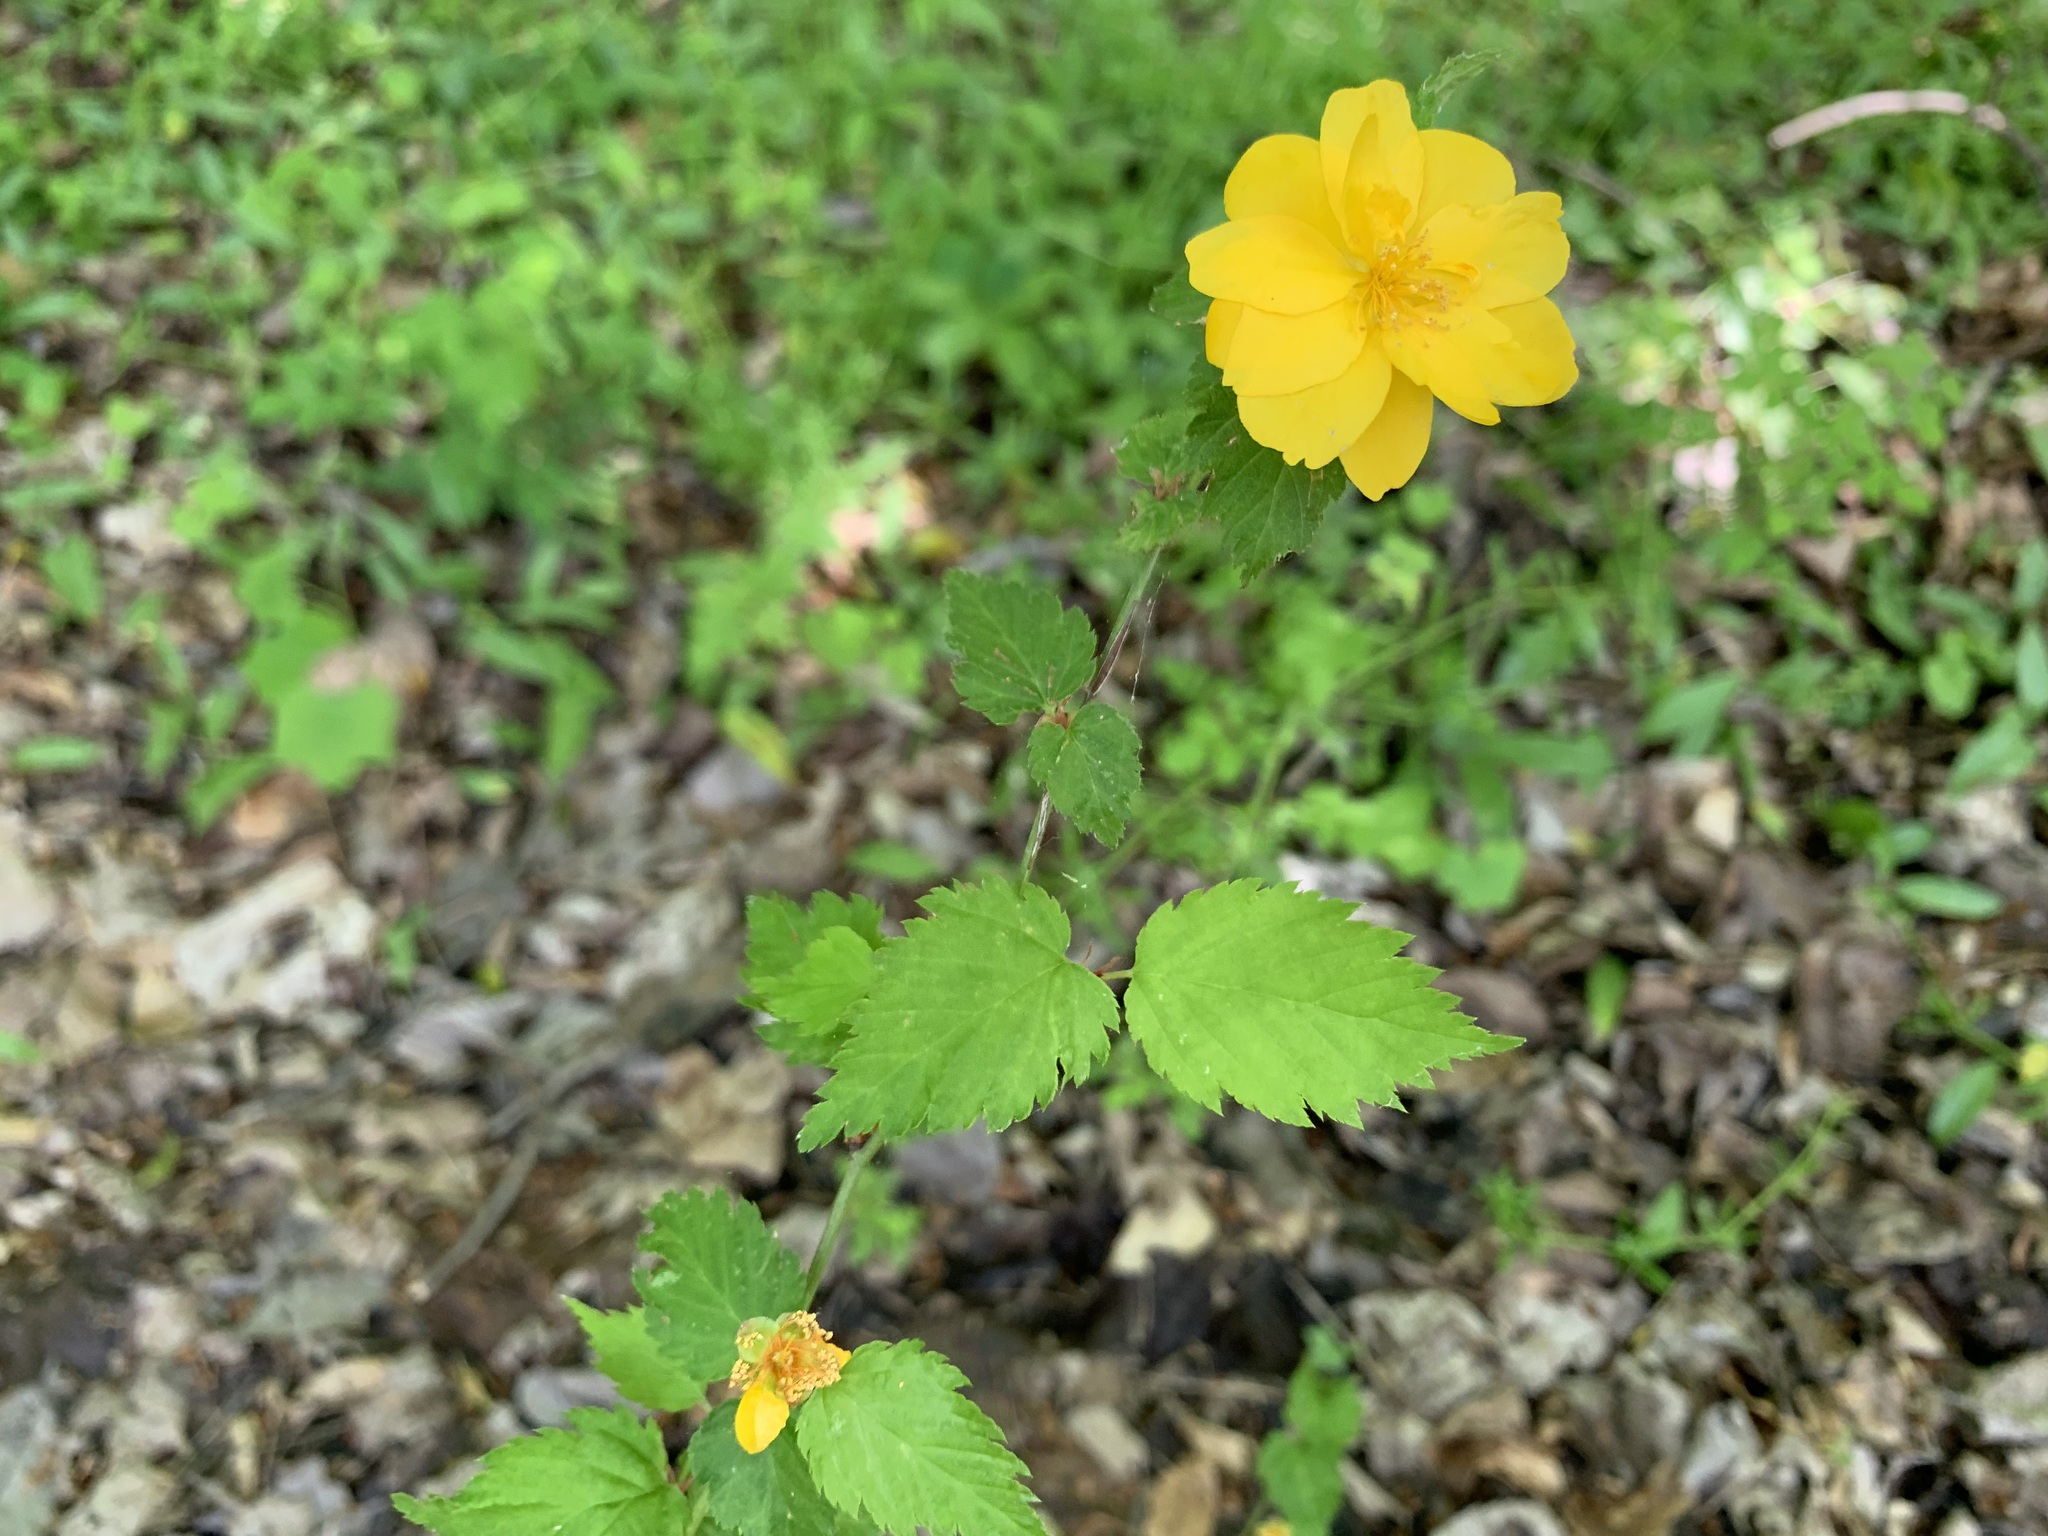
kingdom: Plantae
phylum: Tracheophyta
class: Magnoliopsida
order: Rosales
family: Rosaceae
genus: Kerria
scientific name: Kerria japonica
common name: Japanese kerria
